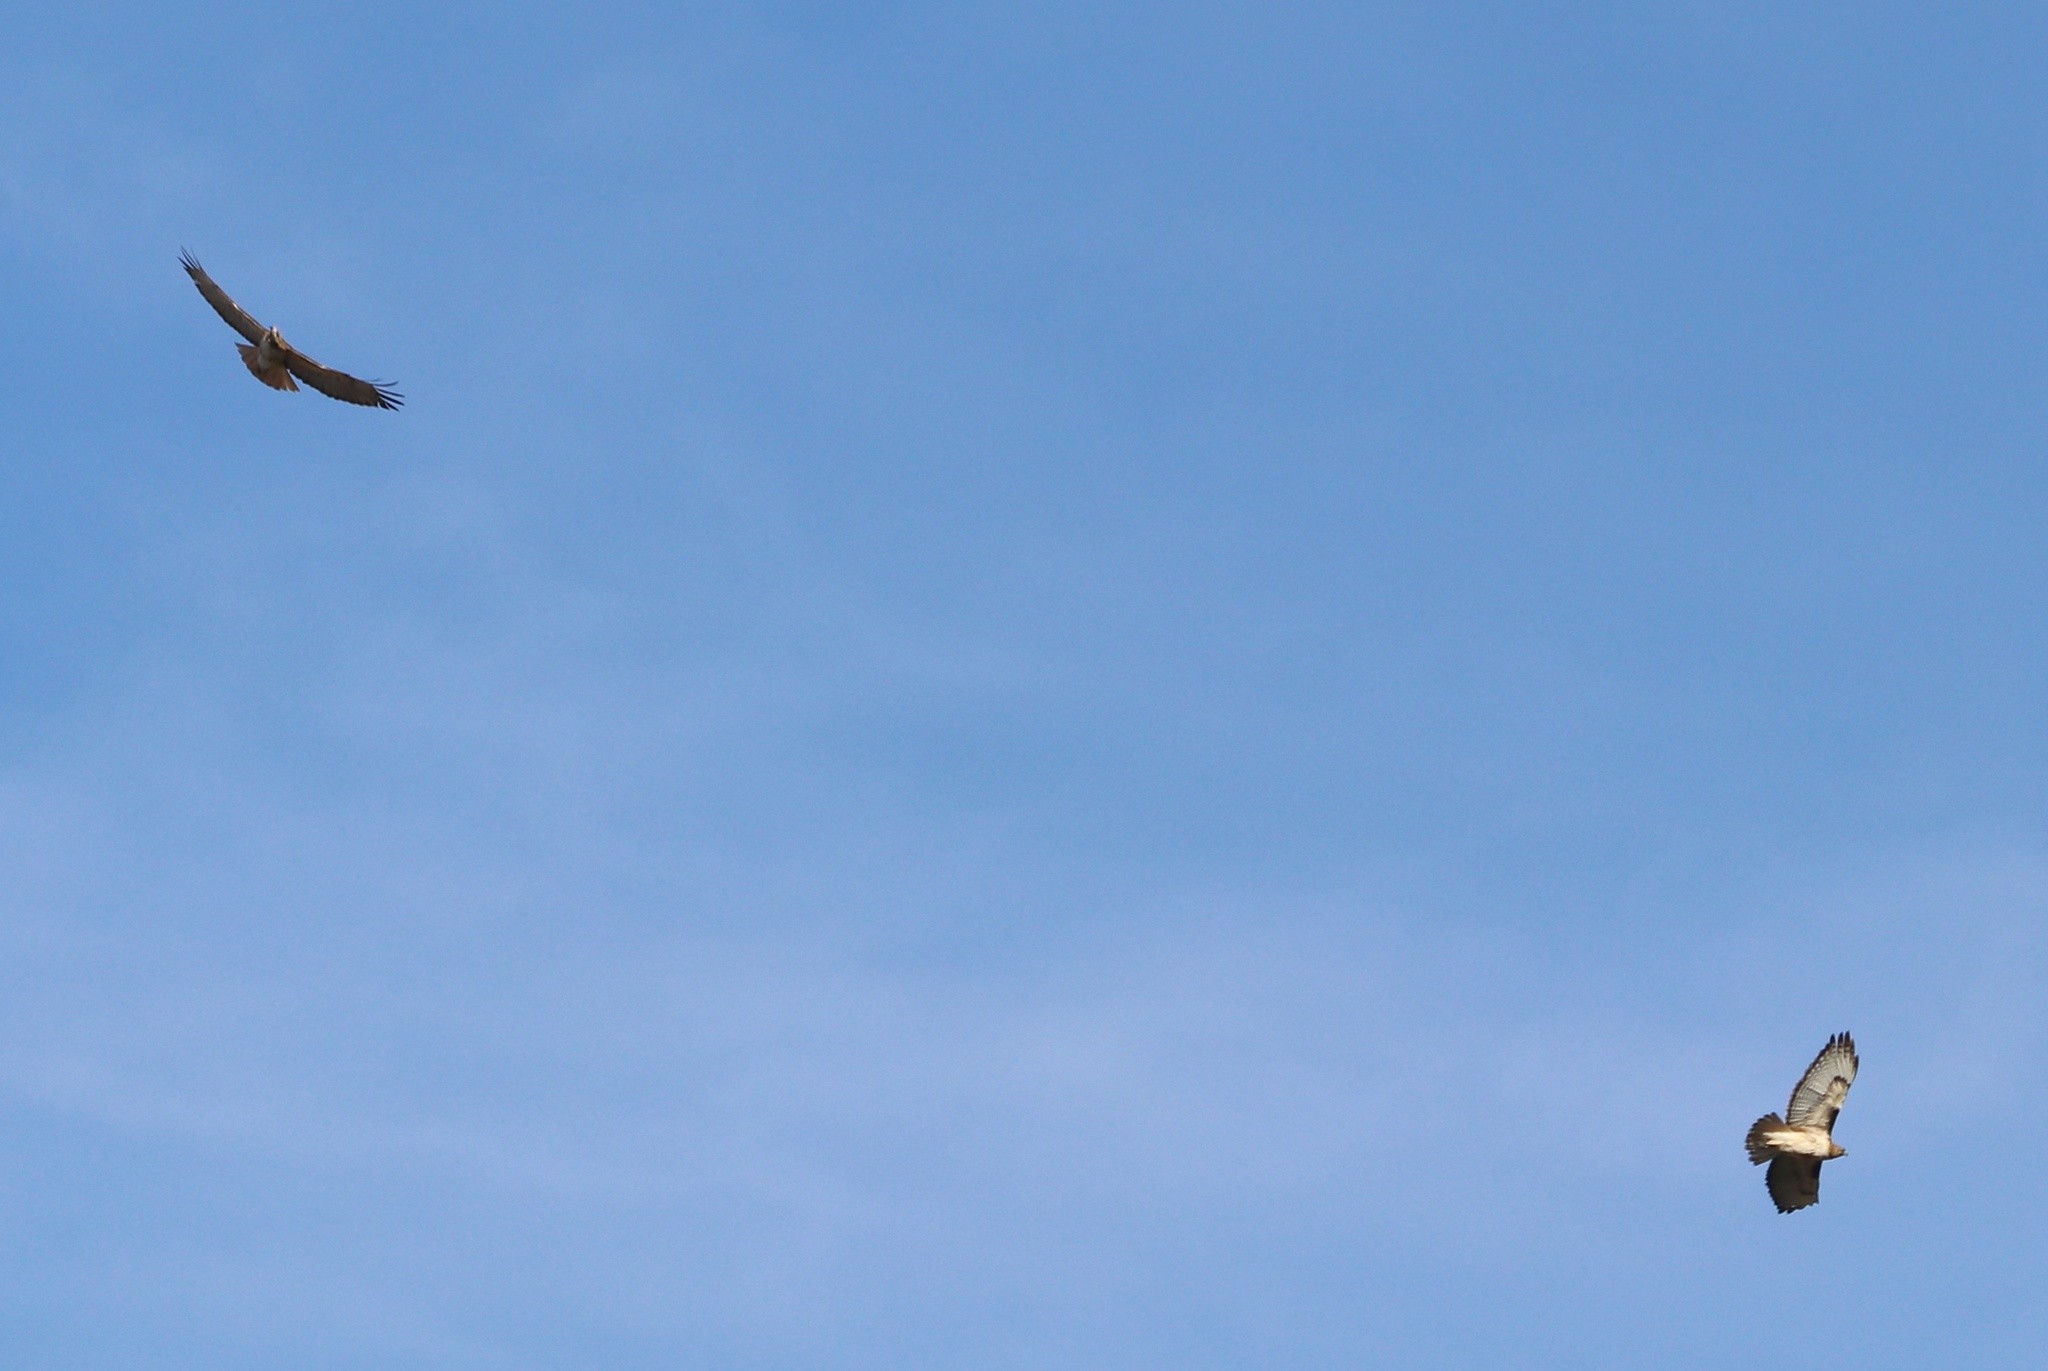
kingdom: Animalia
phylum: Chordata
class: Aves
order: Accipitriformes
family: Accipitridae
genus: Buteo
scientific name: Buteo jamaicensis
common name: Red-tailed hawk
